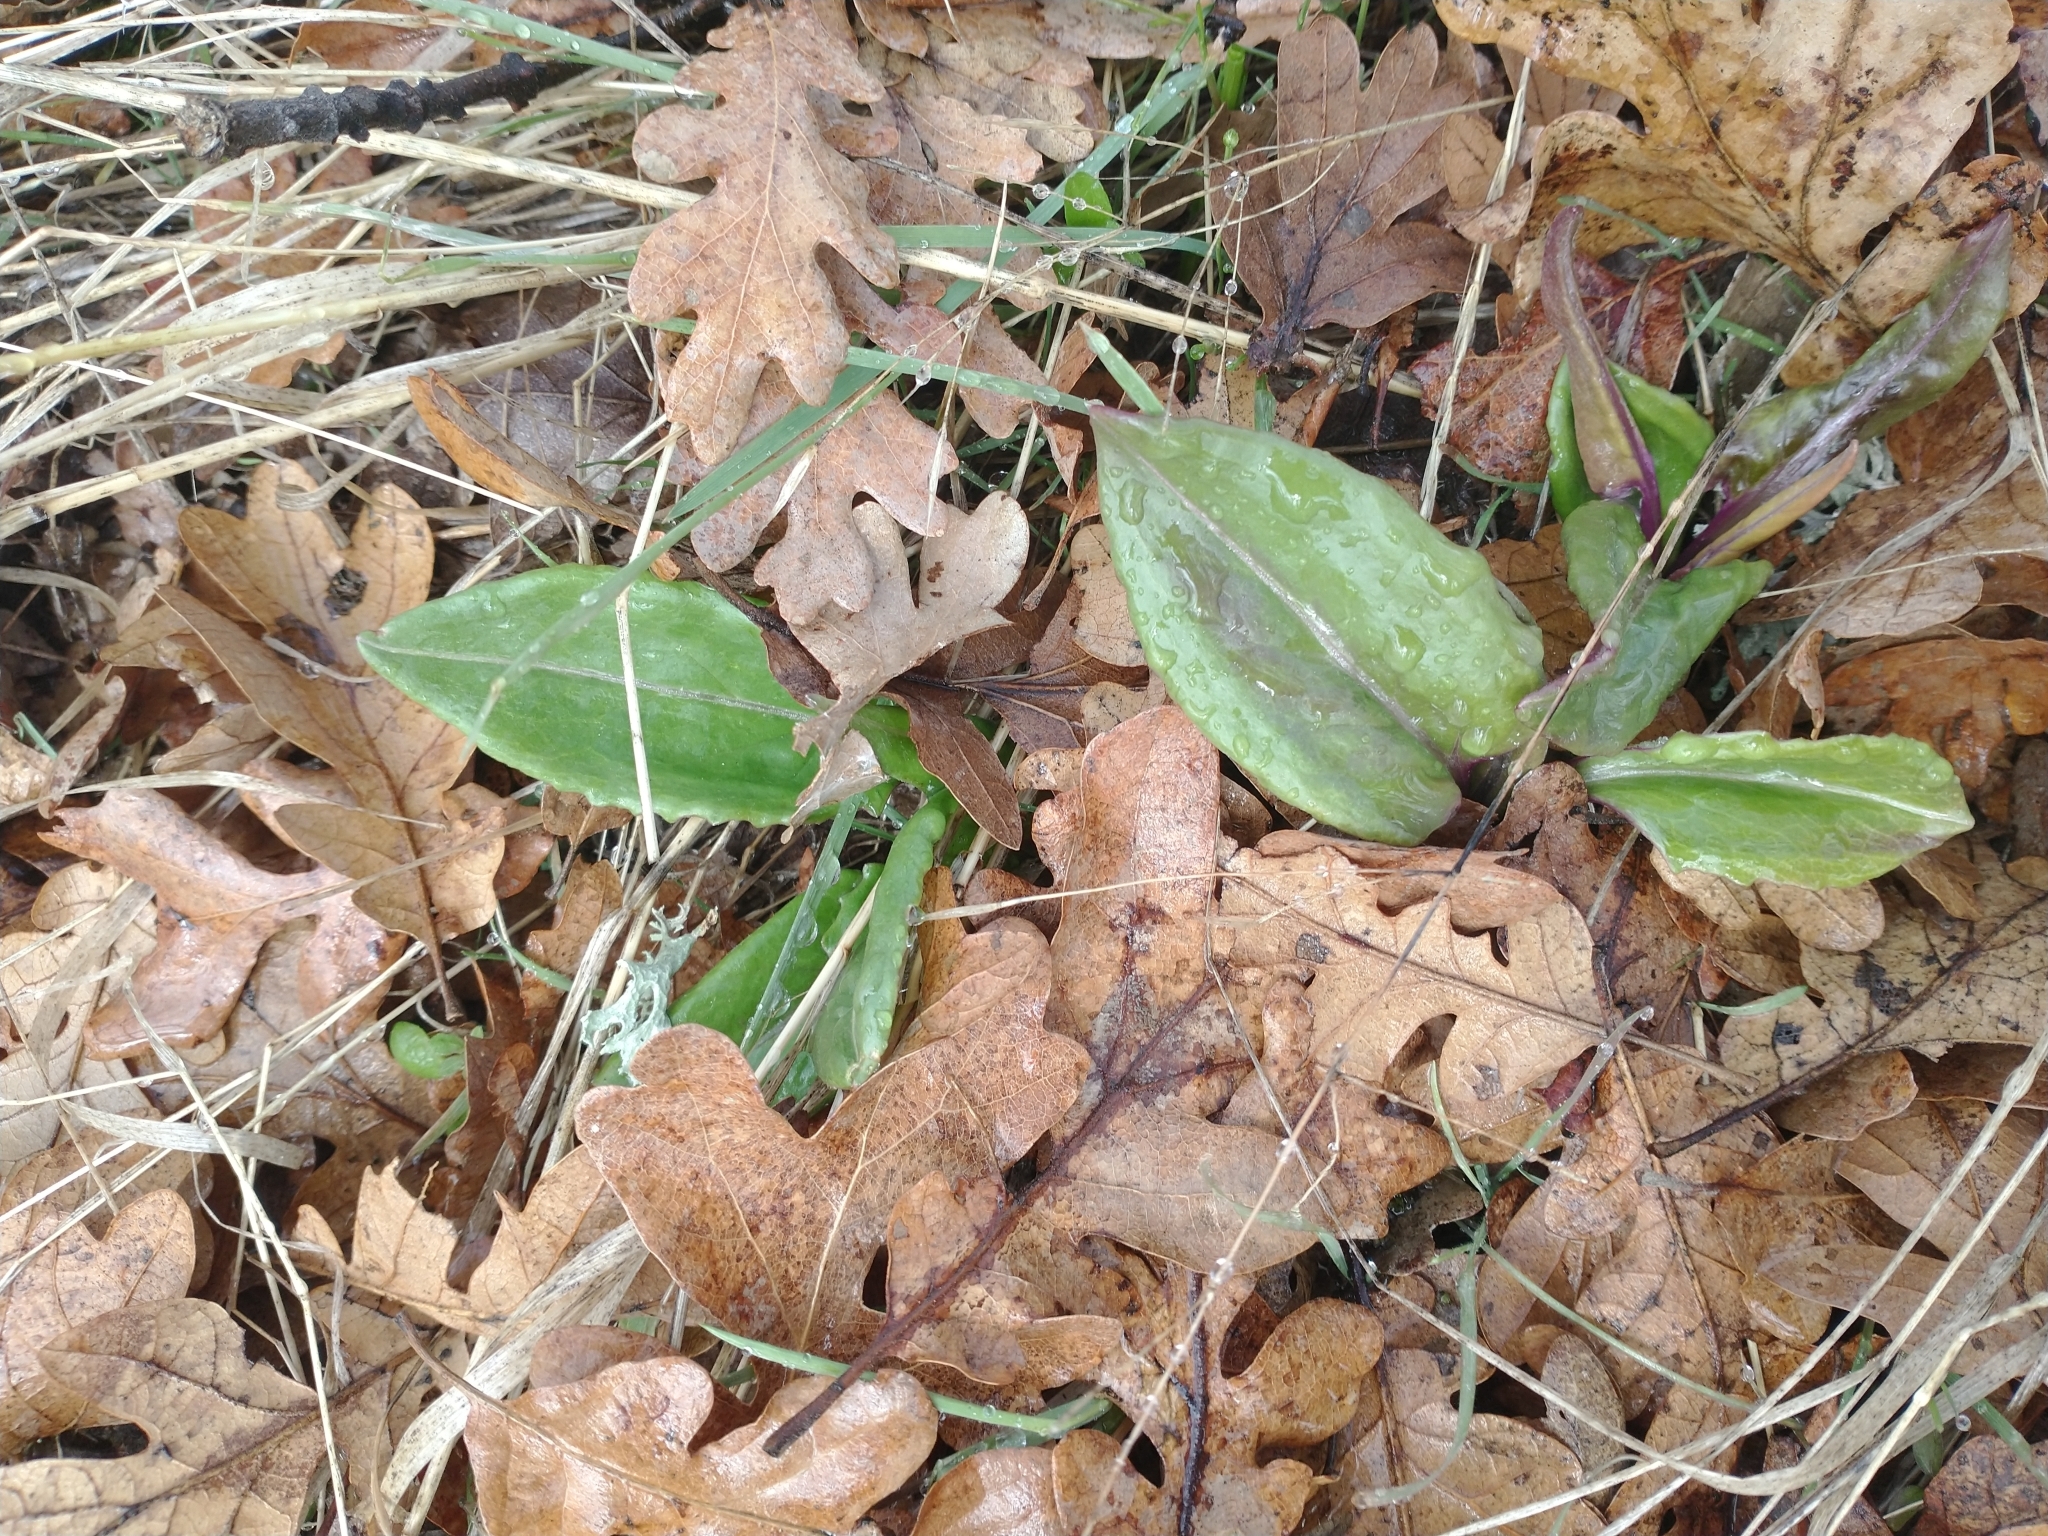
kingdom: Plantae
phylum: Tracheophyta
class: Magnoliopsida
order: Asterales
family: Asteraceae
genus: Senecio
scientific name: Senecio integerrimus
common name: Gaugeplant
